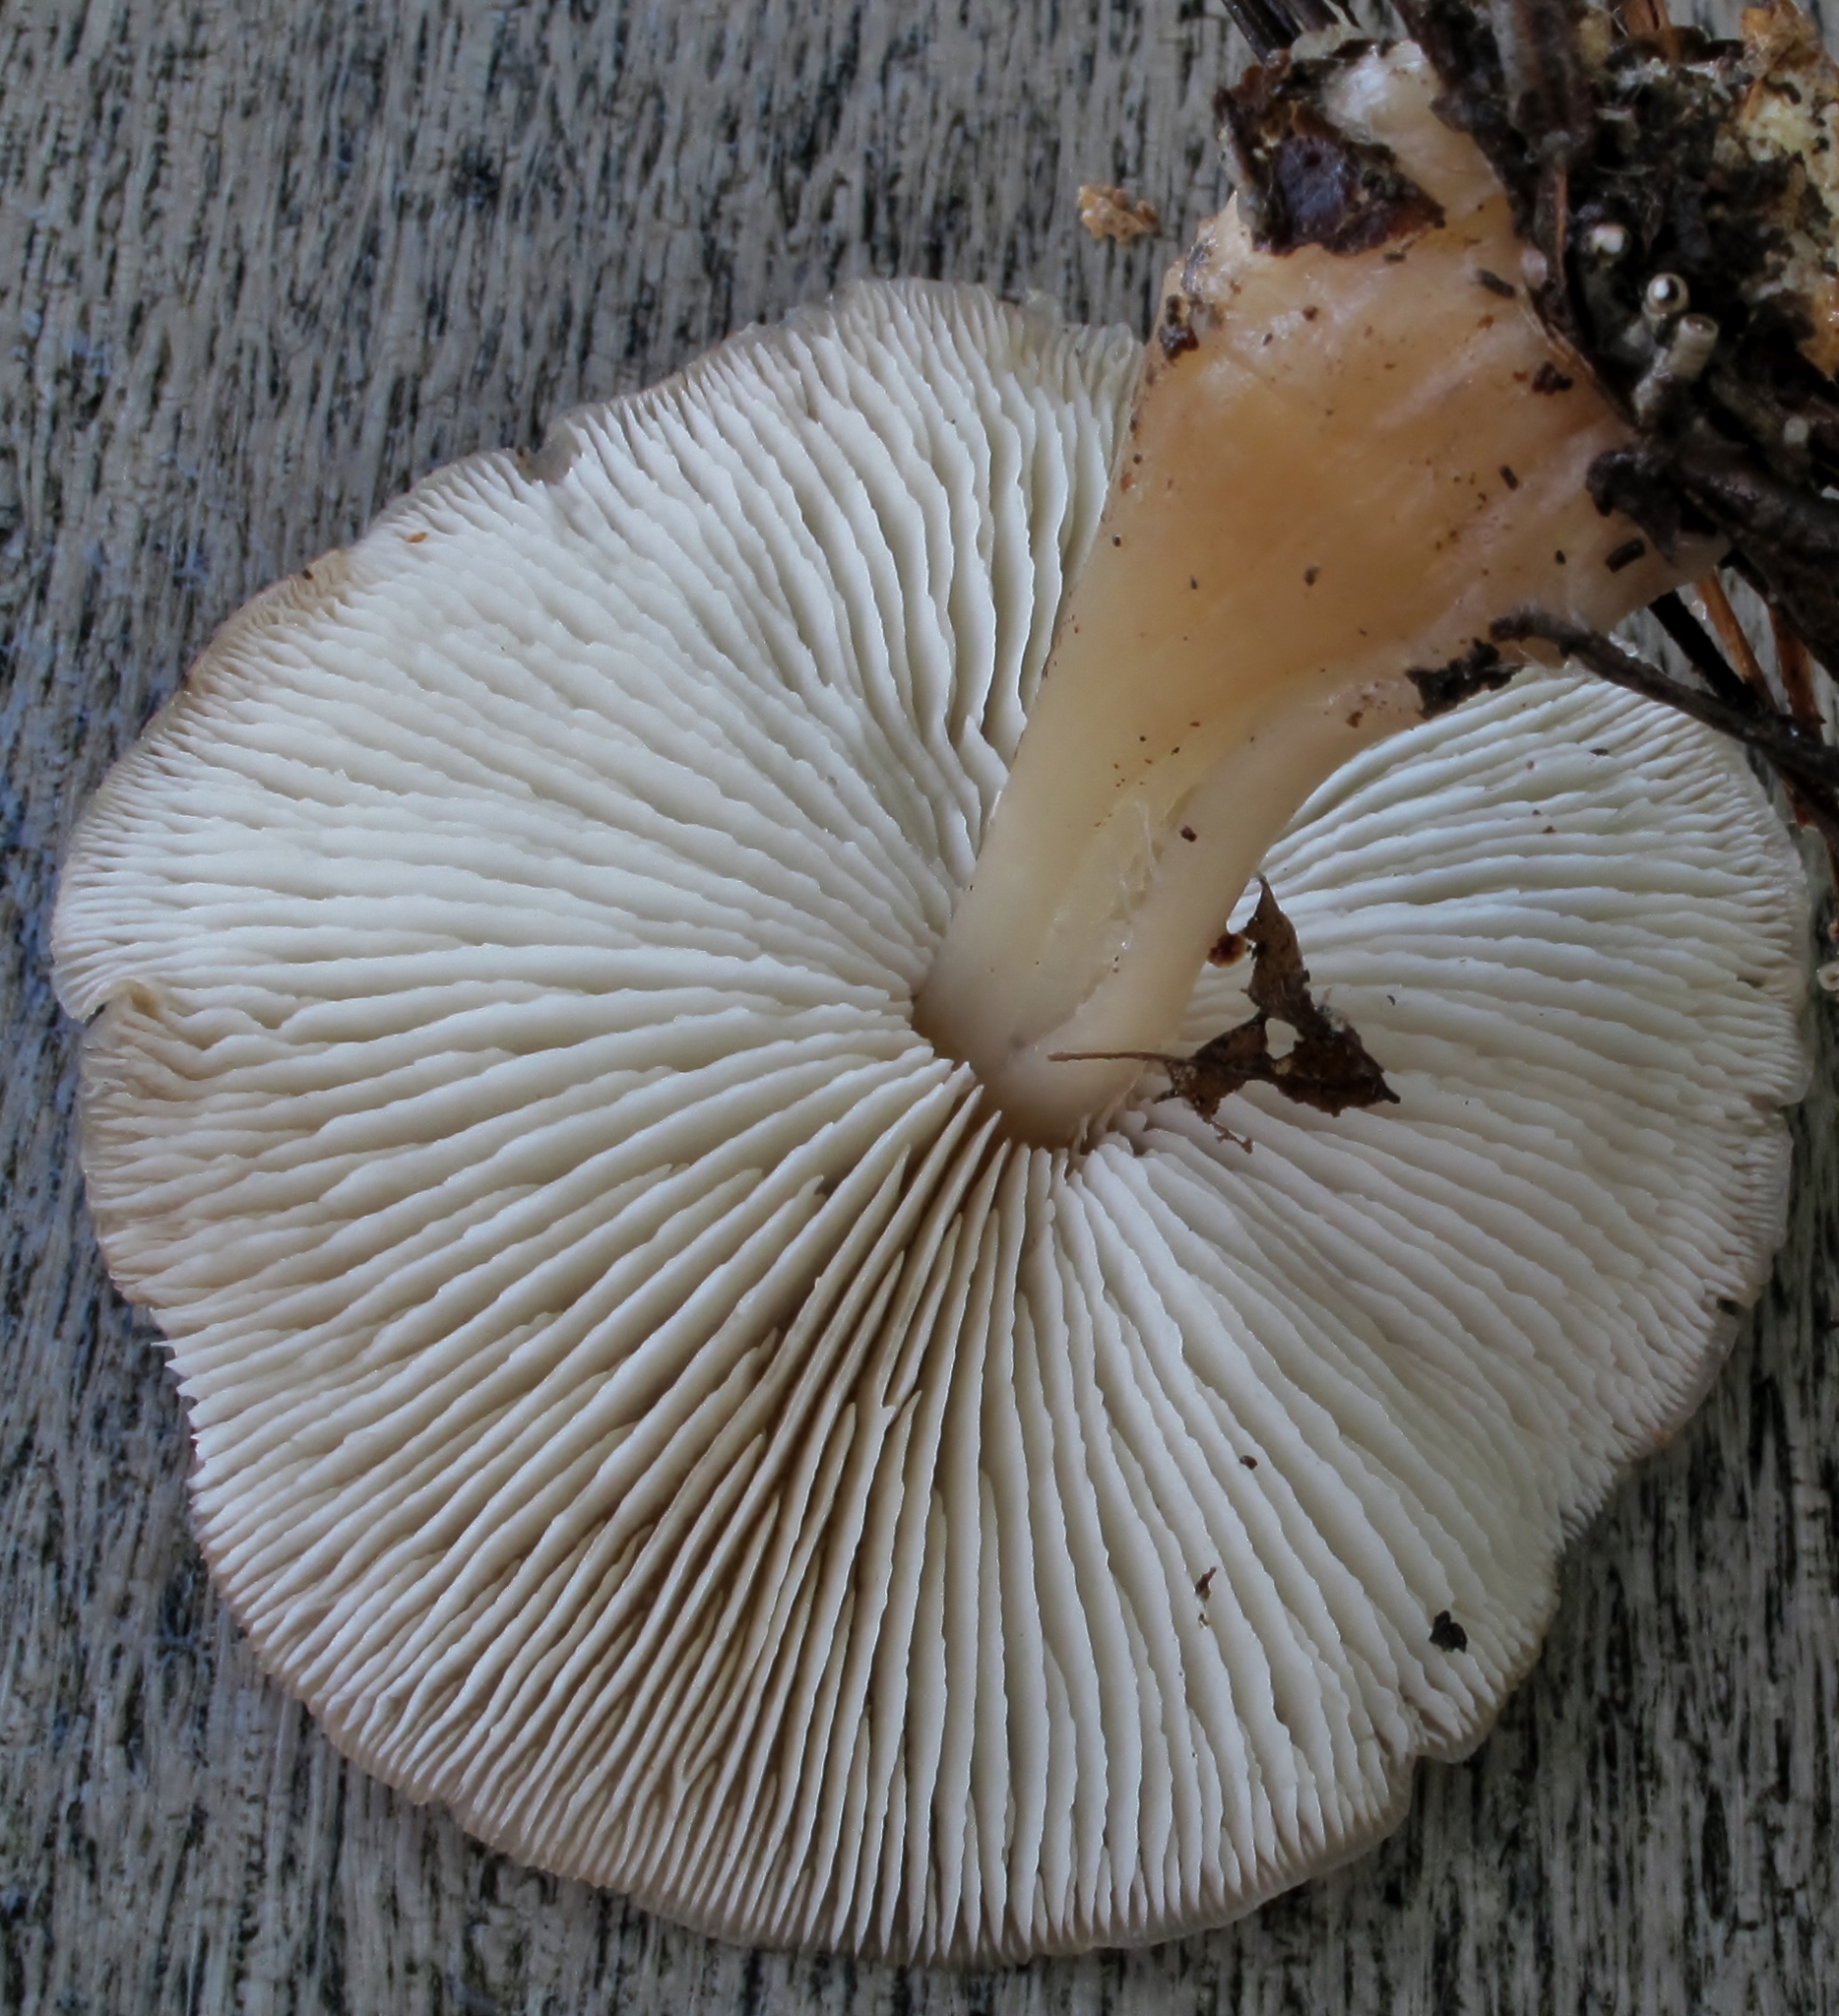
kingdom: Fungi
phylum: Basidiomycota
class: Agaricomycetes
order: Agaricales
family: Omphalotaceae
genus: Rhodocollybia
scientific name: Rhodocollybia butyracea
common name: Butter cap
